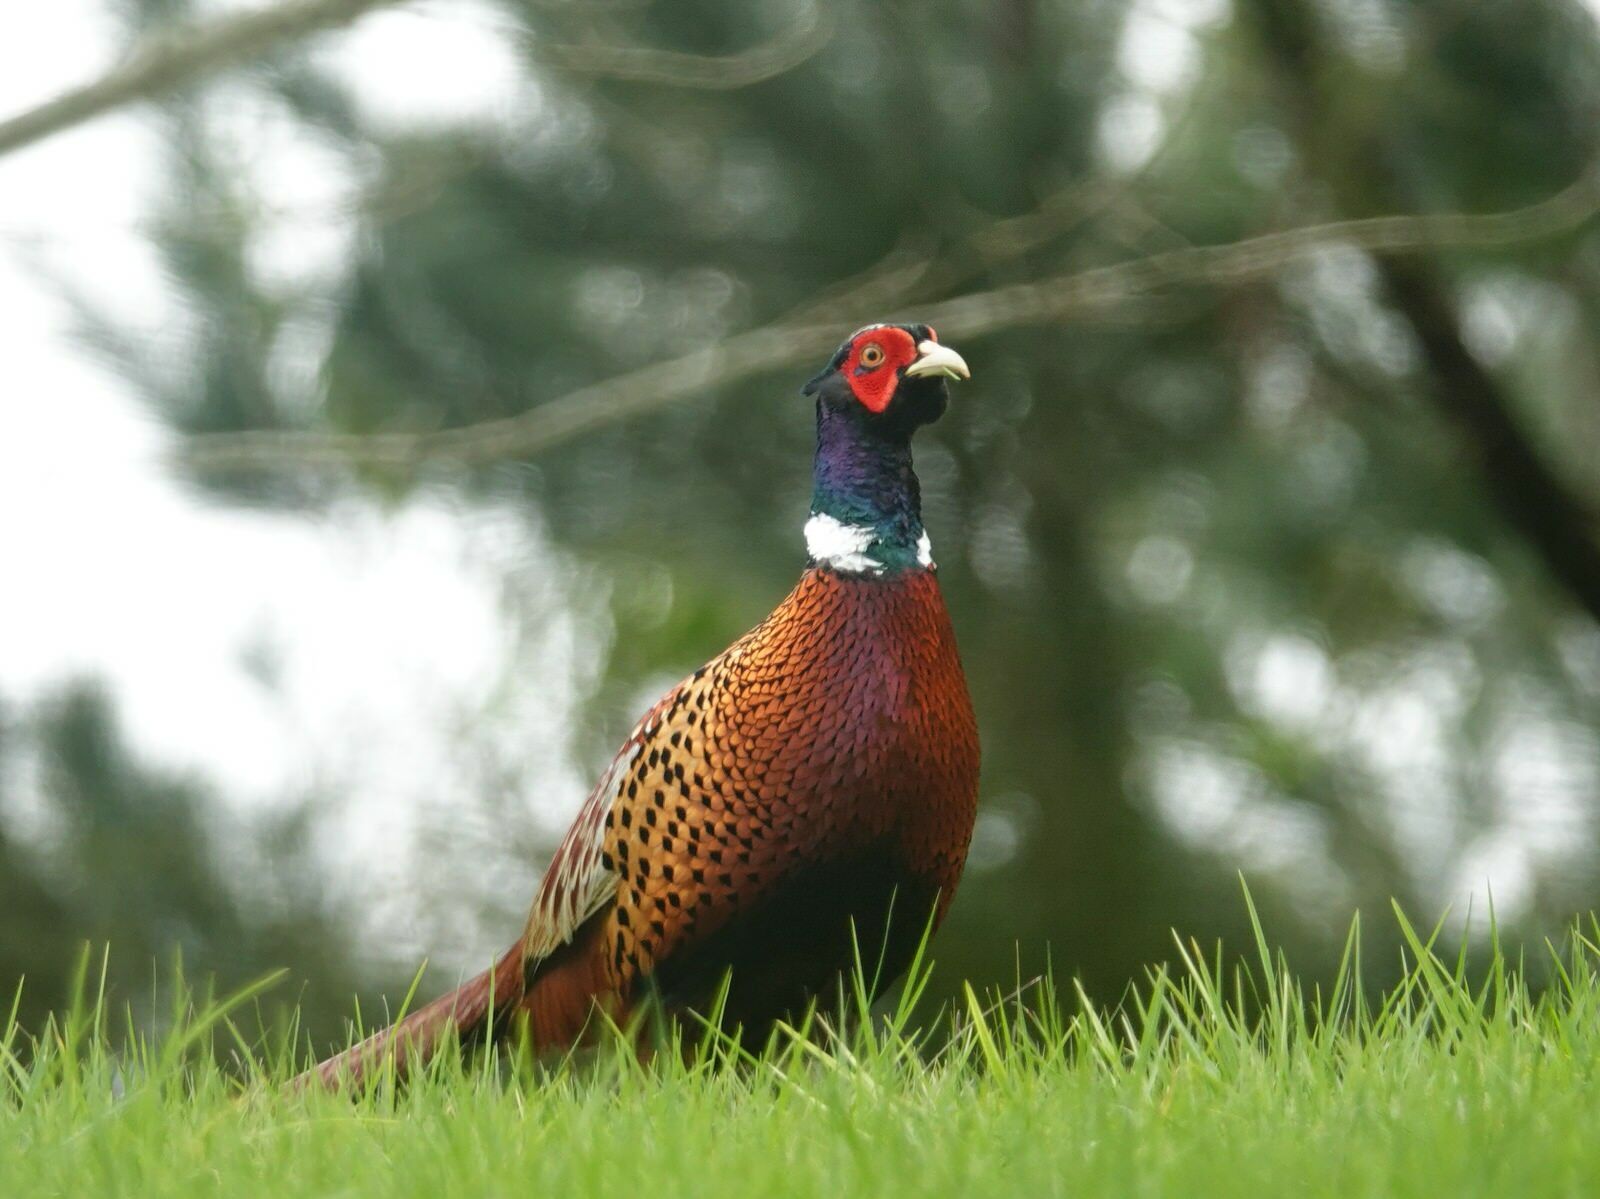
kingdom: Animalia
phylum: Chordata
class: Aves
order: Galliformes
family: Phasianidae
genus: Phasianus
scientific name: Phasianus colchicus
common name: Common pheasant
